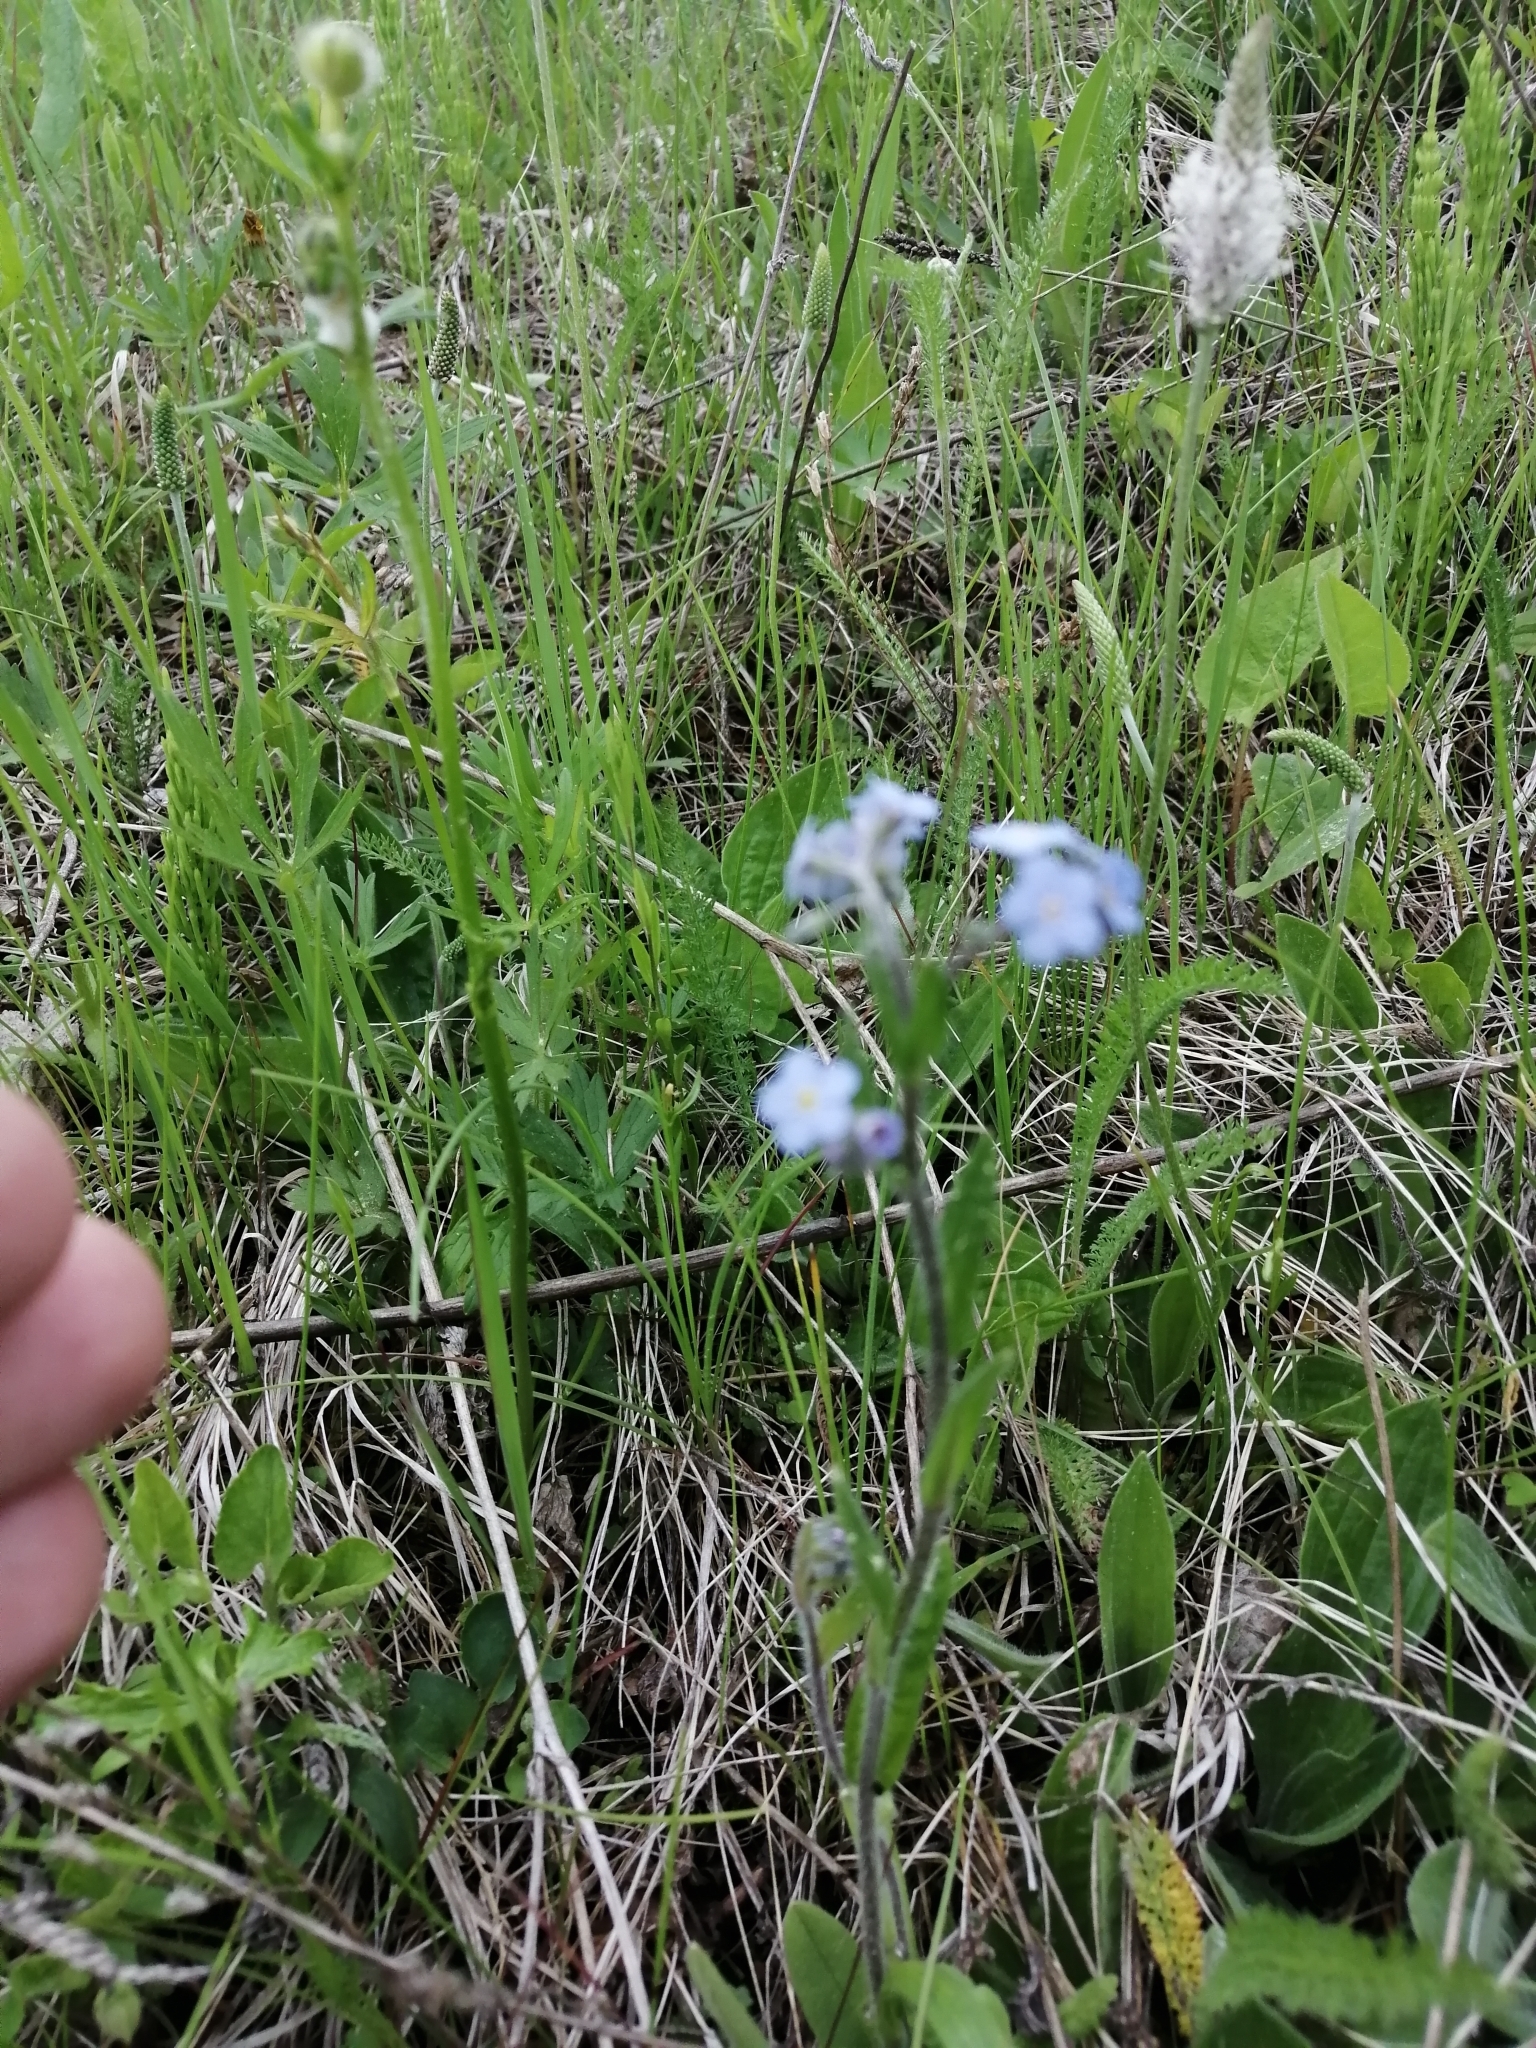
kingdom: Plantae
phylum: Tracheophyta
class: Magnoliopsida
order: Boraginales
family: Boraginaceae
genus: Myosotis
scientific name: Myosotis imitata
